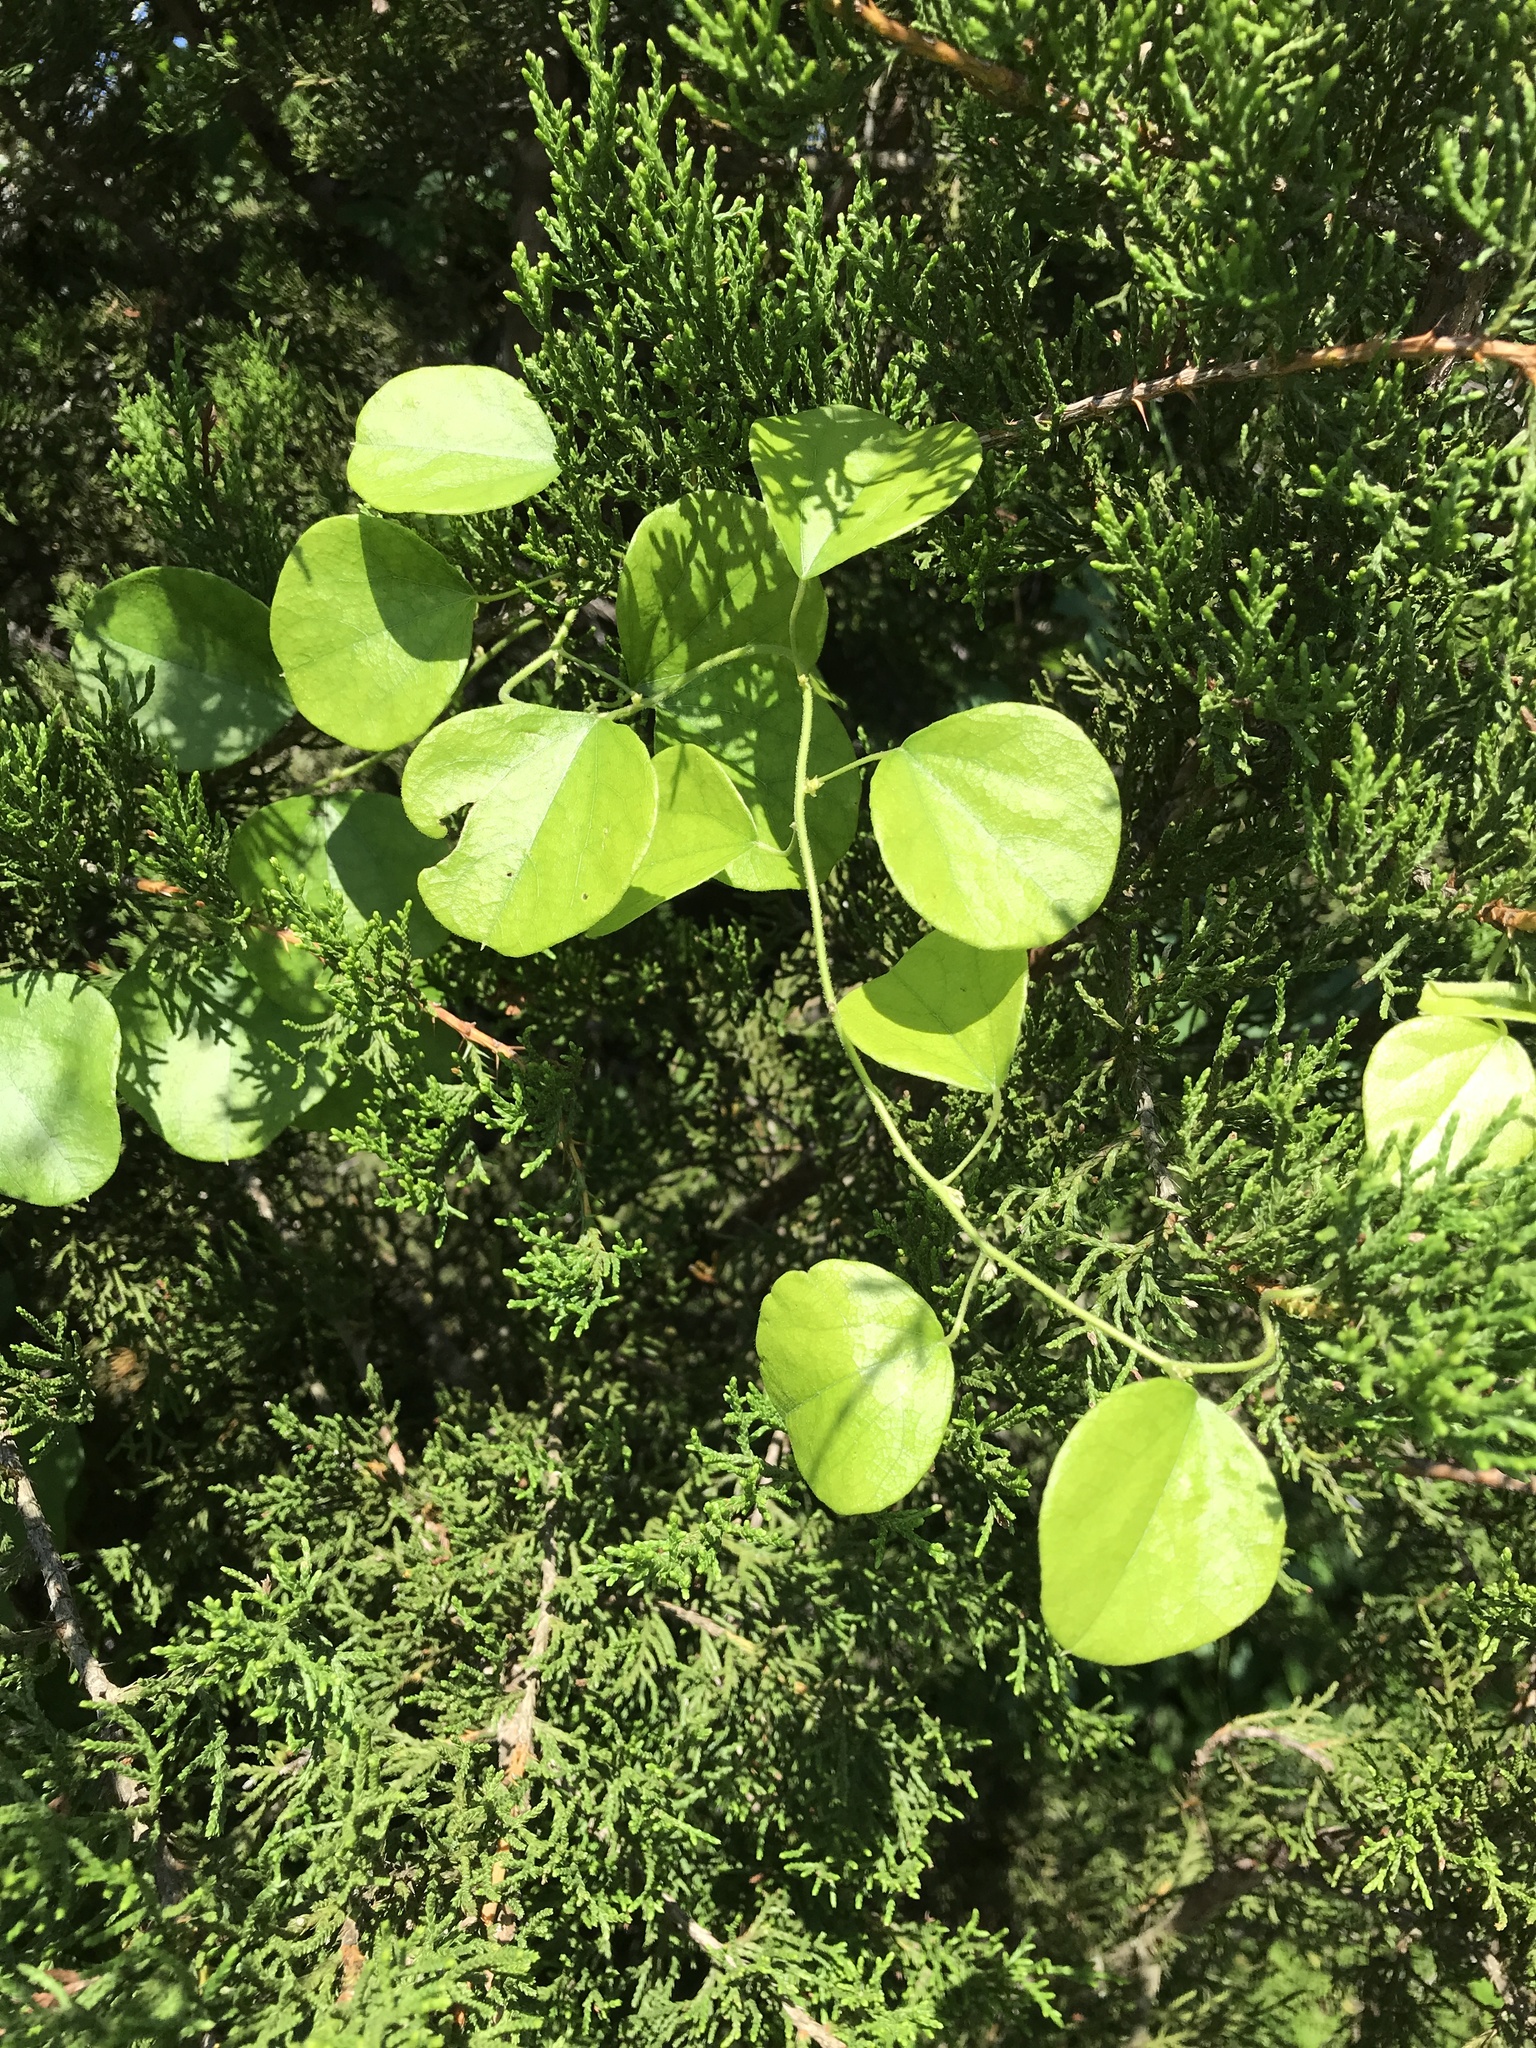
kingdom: Plantae
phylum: Tracheophyta
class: Magnoliopsida
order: Ranunculales
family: Menispermaceae
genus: Cocculus
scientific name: Cocculus carolinus
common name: Carolina moonseed
